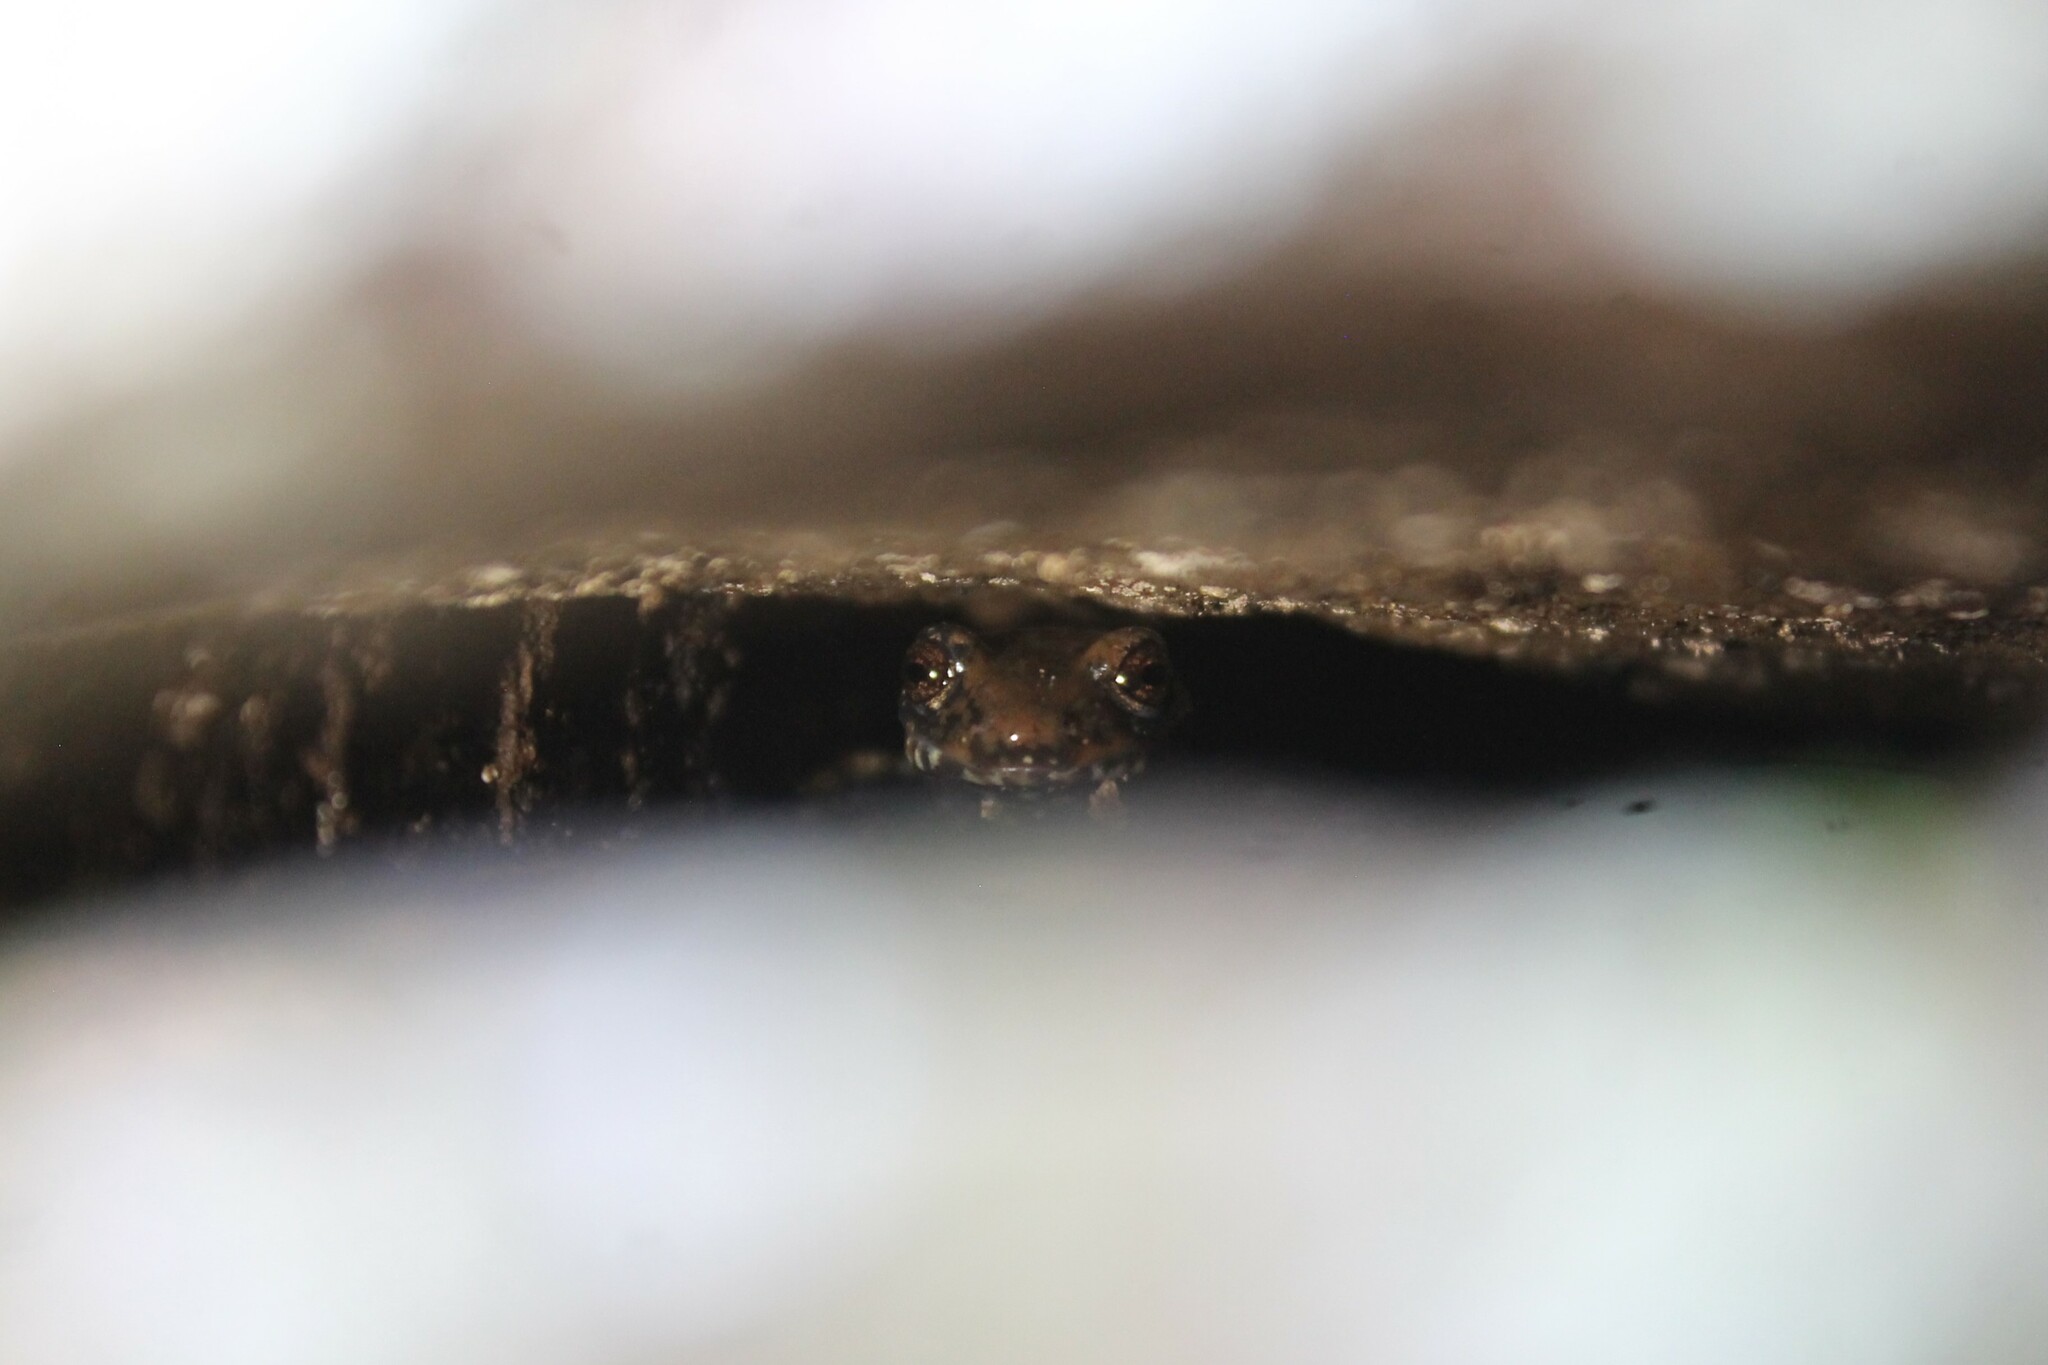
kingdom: Animalia
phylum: Chordata
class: Amphibia
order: Caudata
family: Plethodontidae
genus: Plethodon
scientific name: Plethodon petraeus
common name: Pigeon mountain salamander
